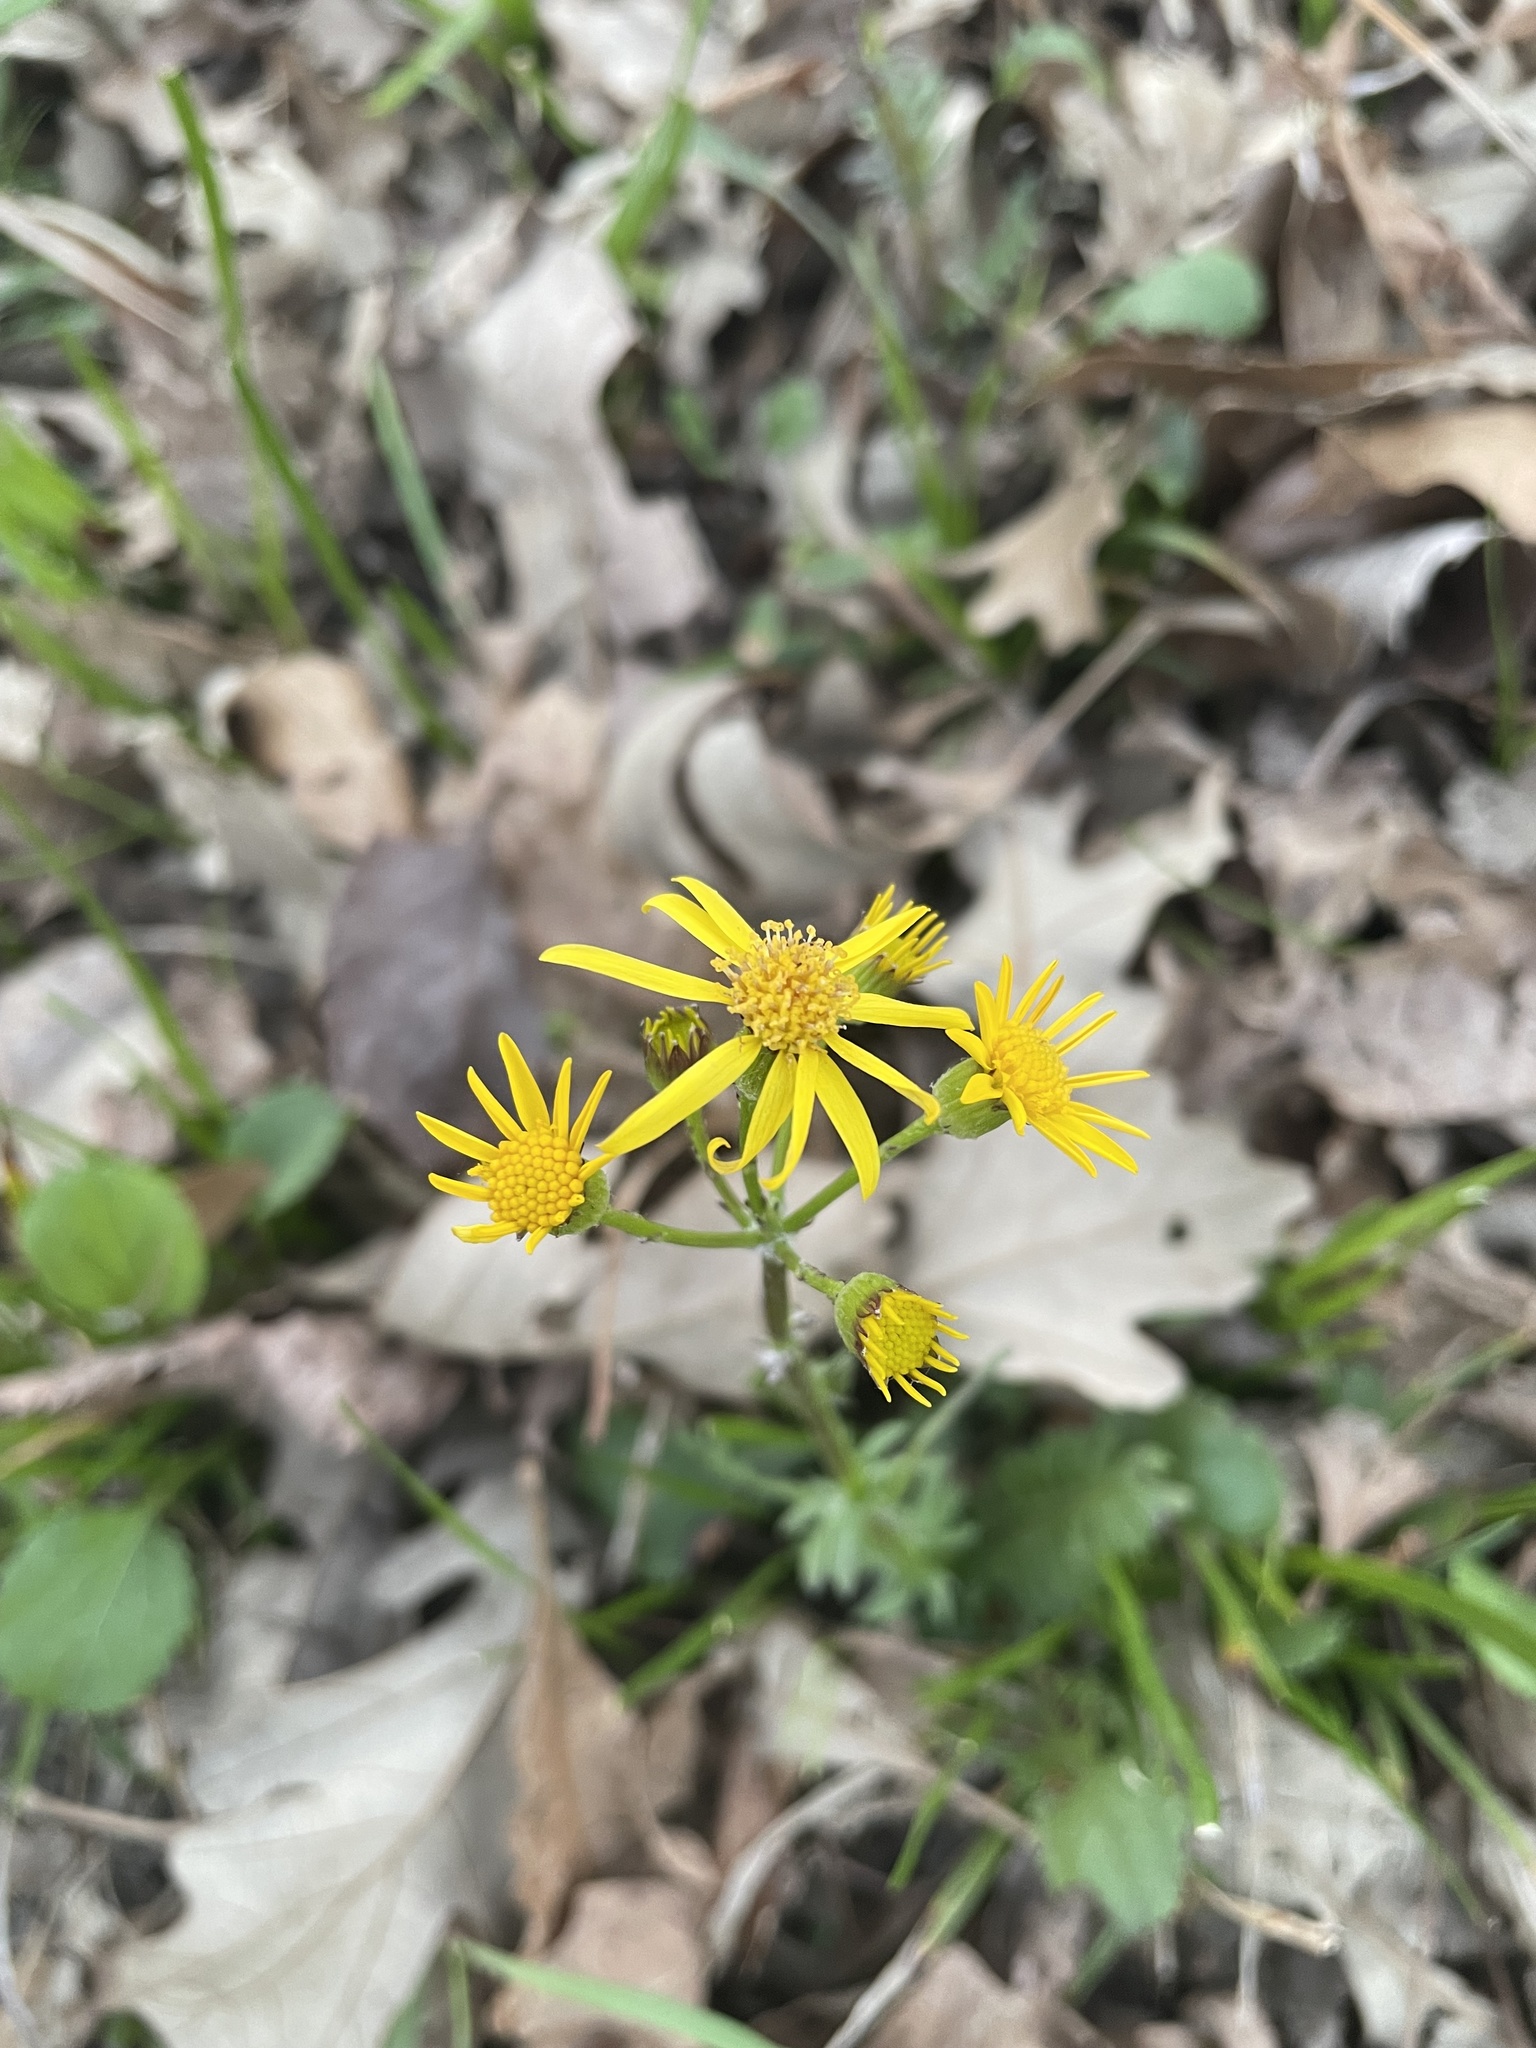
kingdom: Plantae
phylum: Tracheophyta
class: Magnoliopsida
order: Asterales
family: Asteraceae
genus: Packera
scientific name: Packera obovata
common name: Round-leaf ragwort
